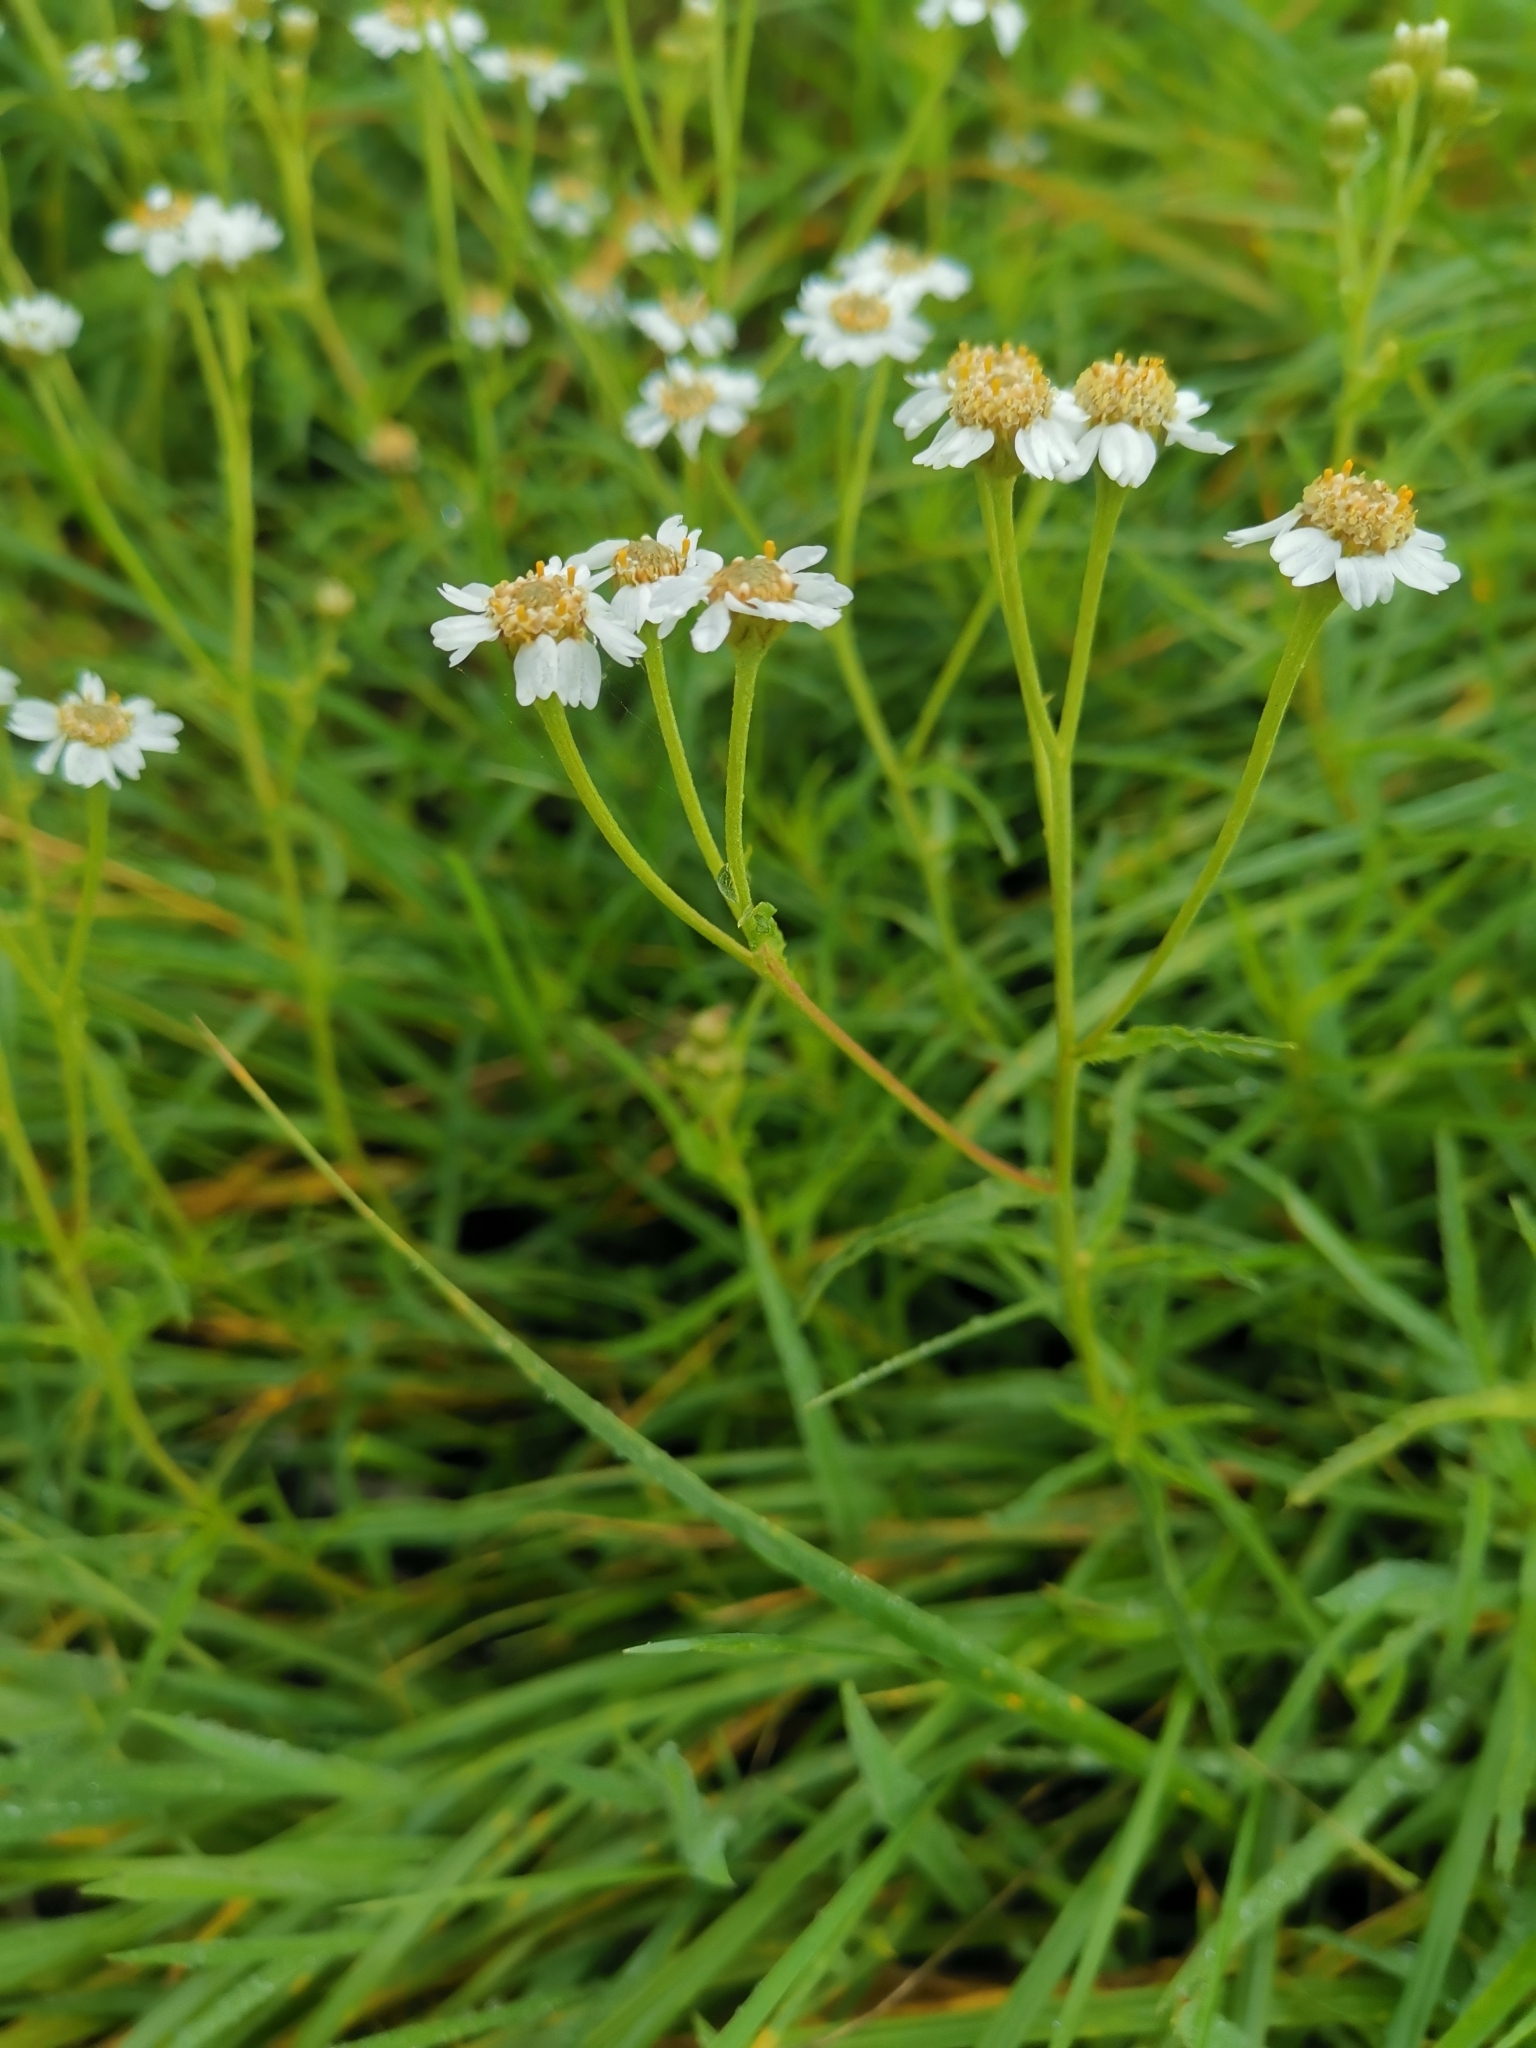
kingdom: Plantae
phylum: Tracheophyta
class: Magnoliopsida
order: Asterales
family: Asteraceae
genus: Achillea
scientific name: Achillea ptarmica
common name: Sneezeweed
